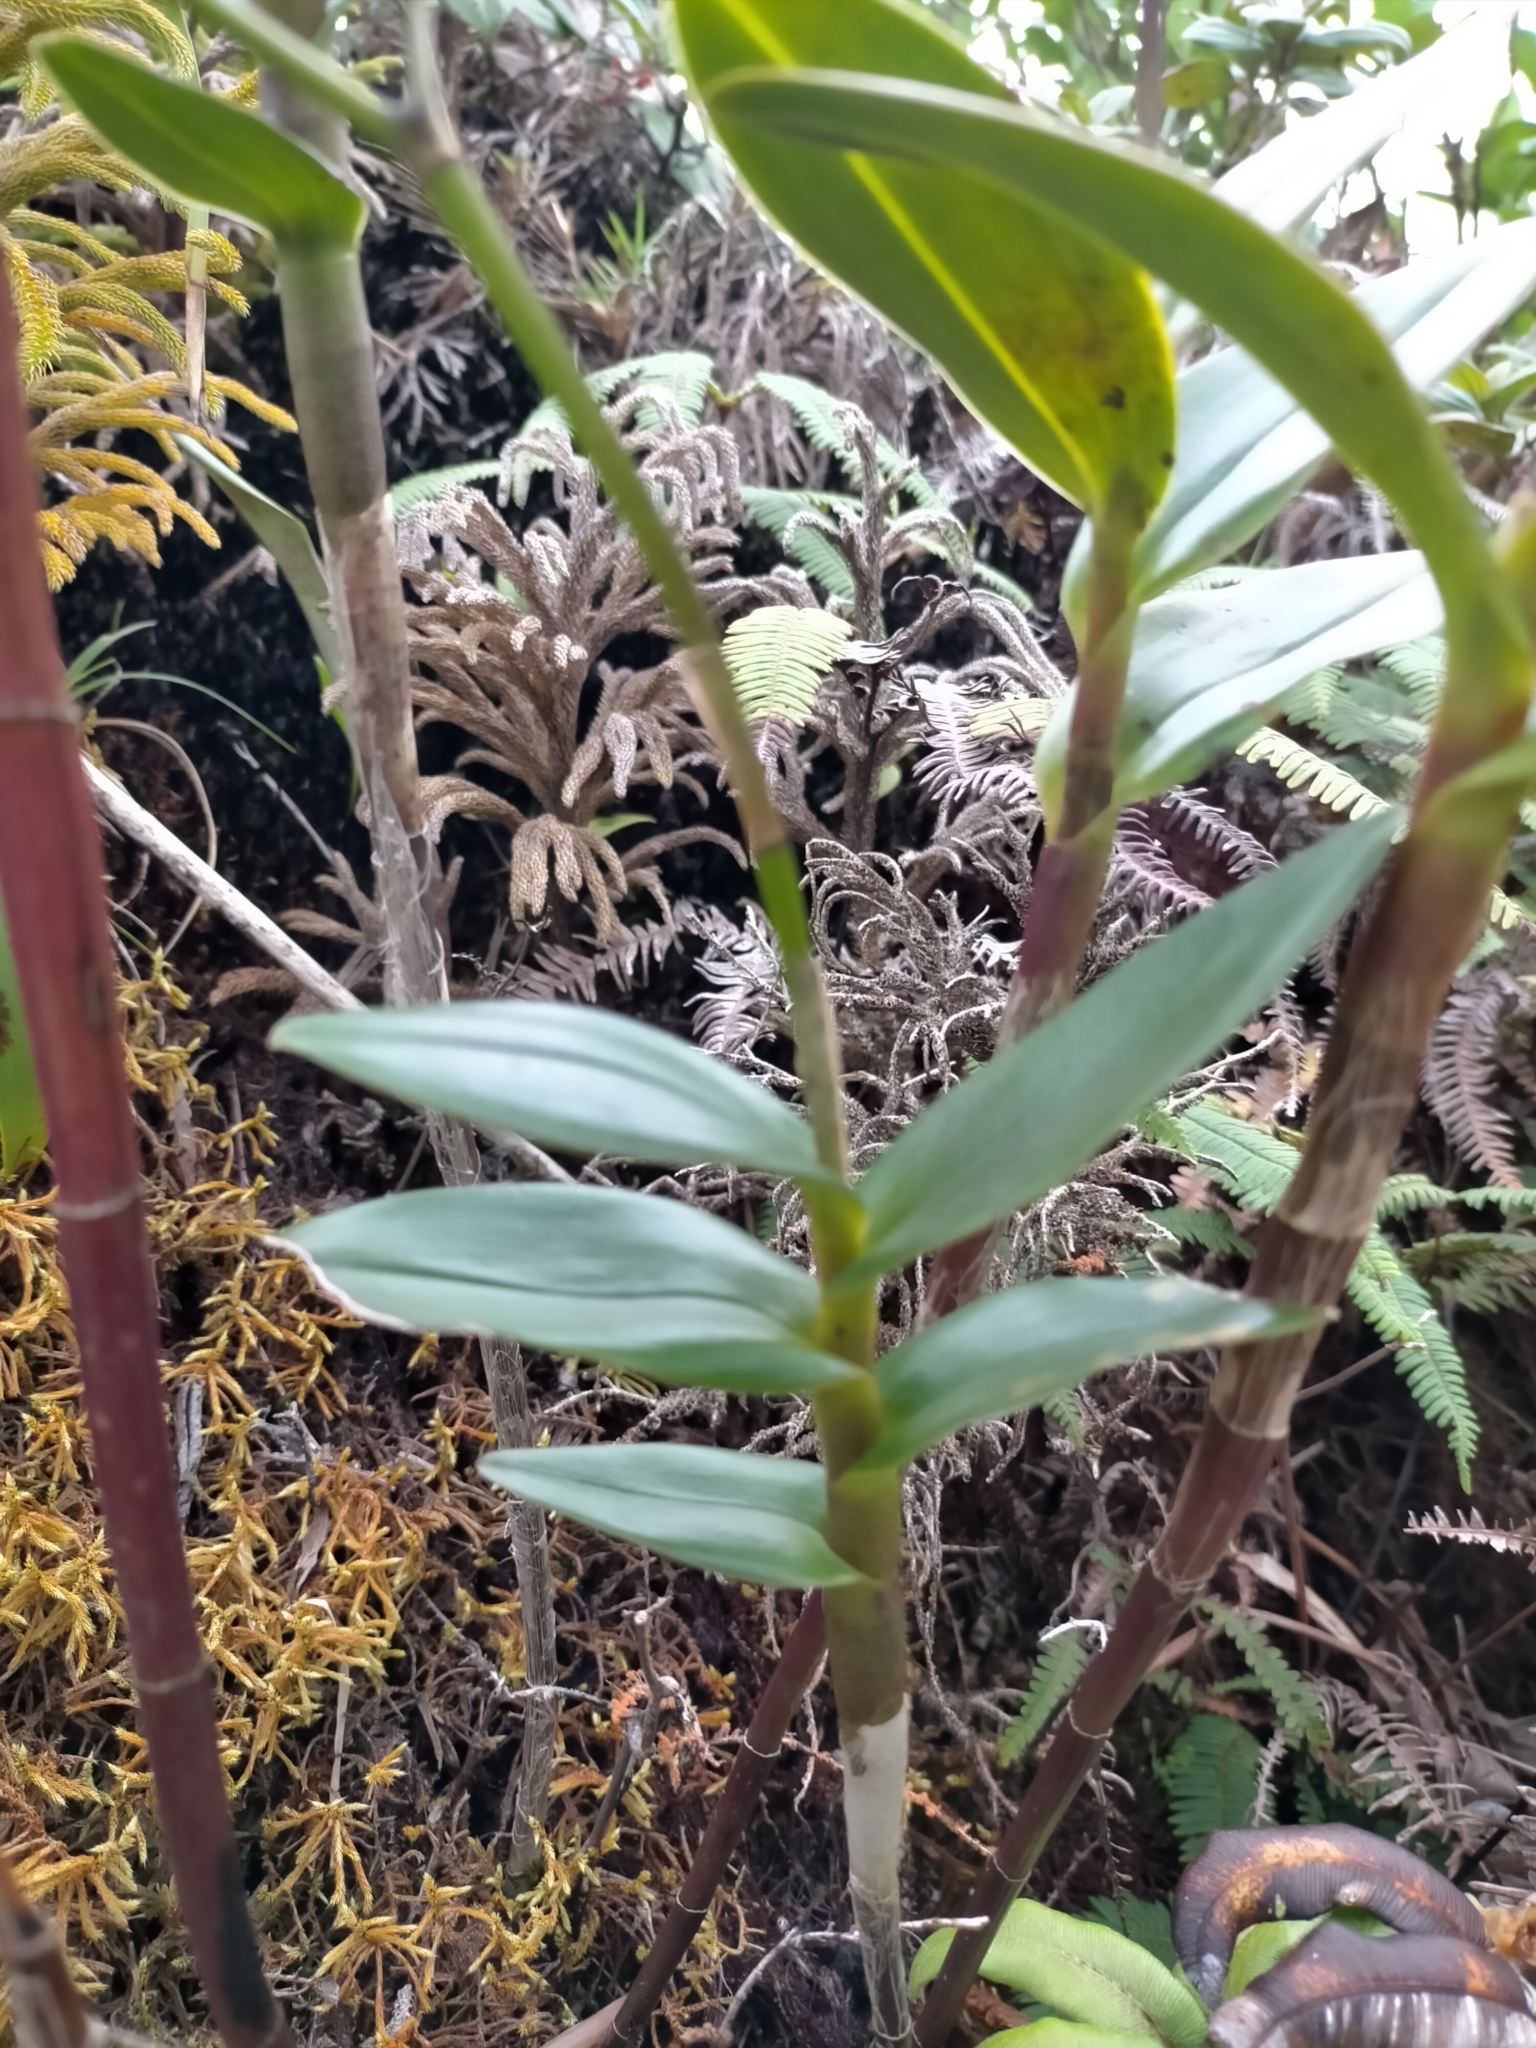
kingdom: Plantae
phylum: Tracheophyta
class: Liliopsida
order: Asparagales
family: Orchidaceae
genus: Epidendrum
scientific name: Epidendrum patens
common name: West indian star orchid
